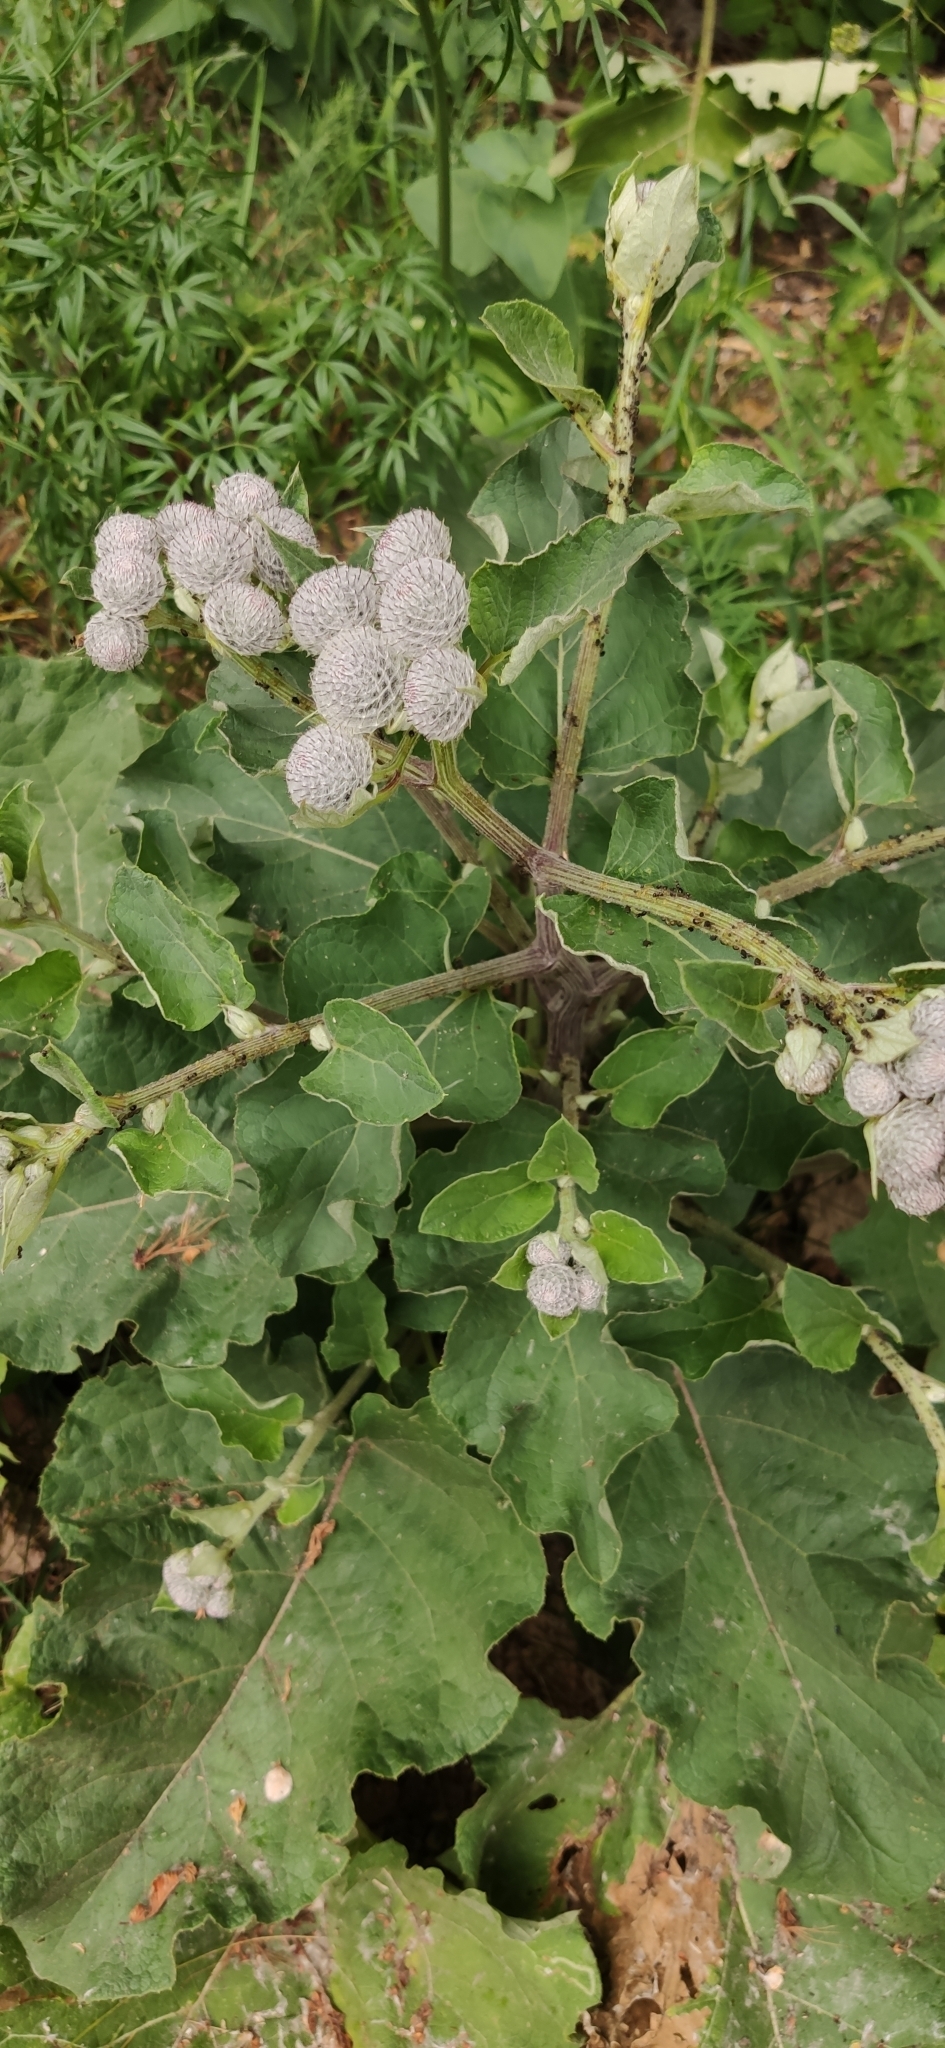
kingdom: Plantae
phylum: Tracheophyta
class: Magnoliopsida
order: Asterales
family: Asteraceae
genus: Arctium
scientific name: Arctium tomentosum
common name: Woolly burdock
